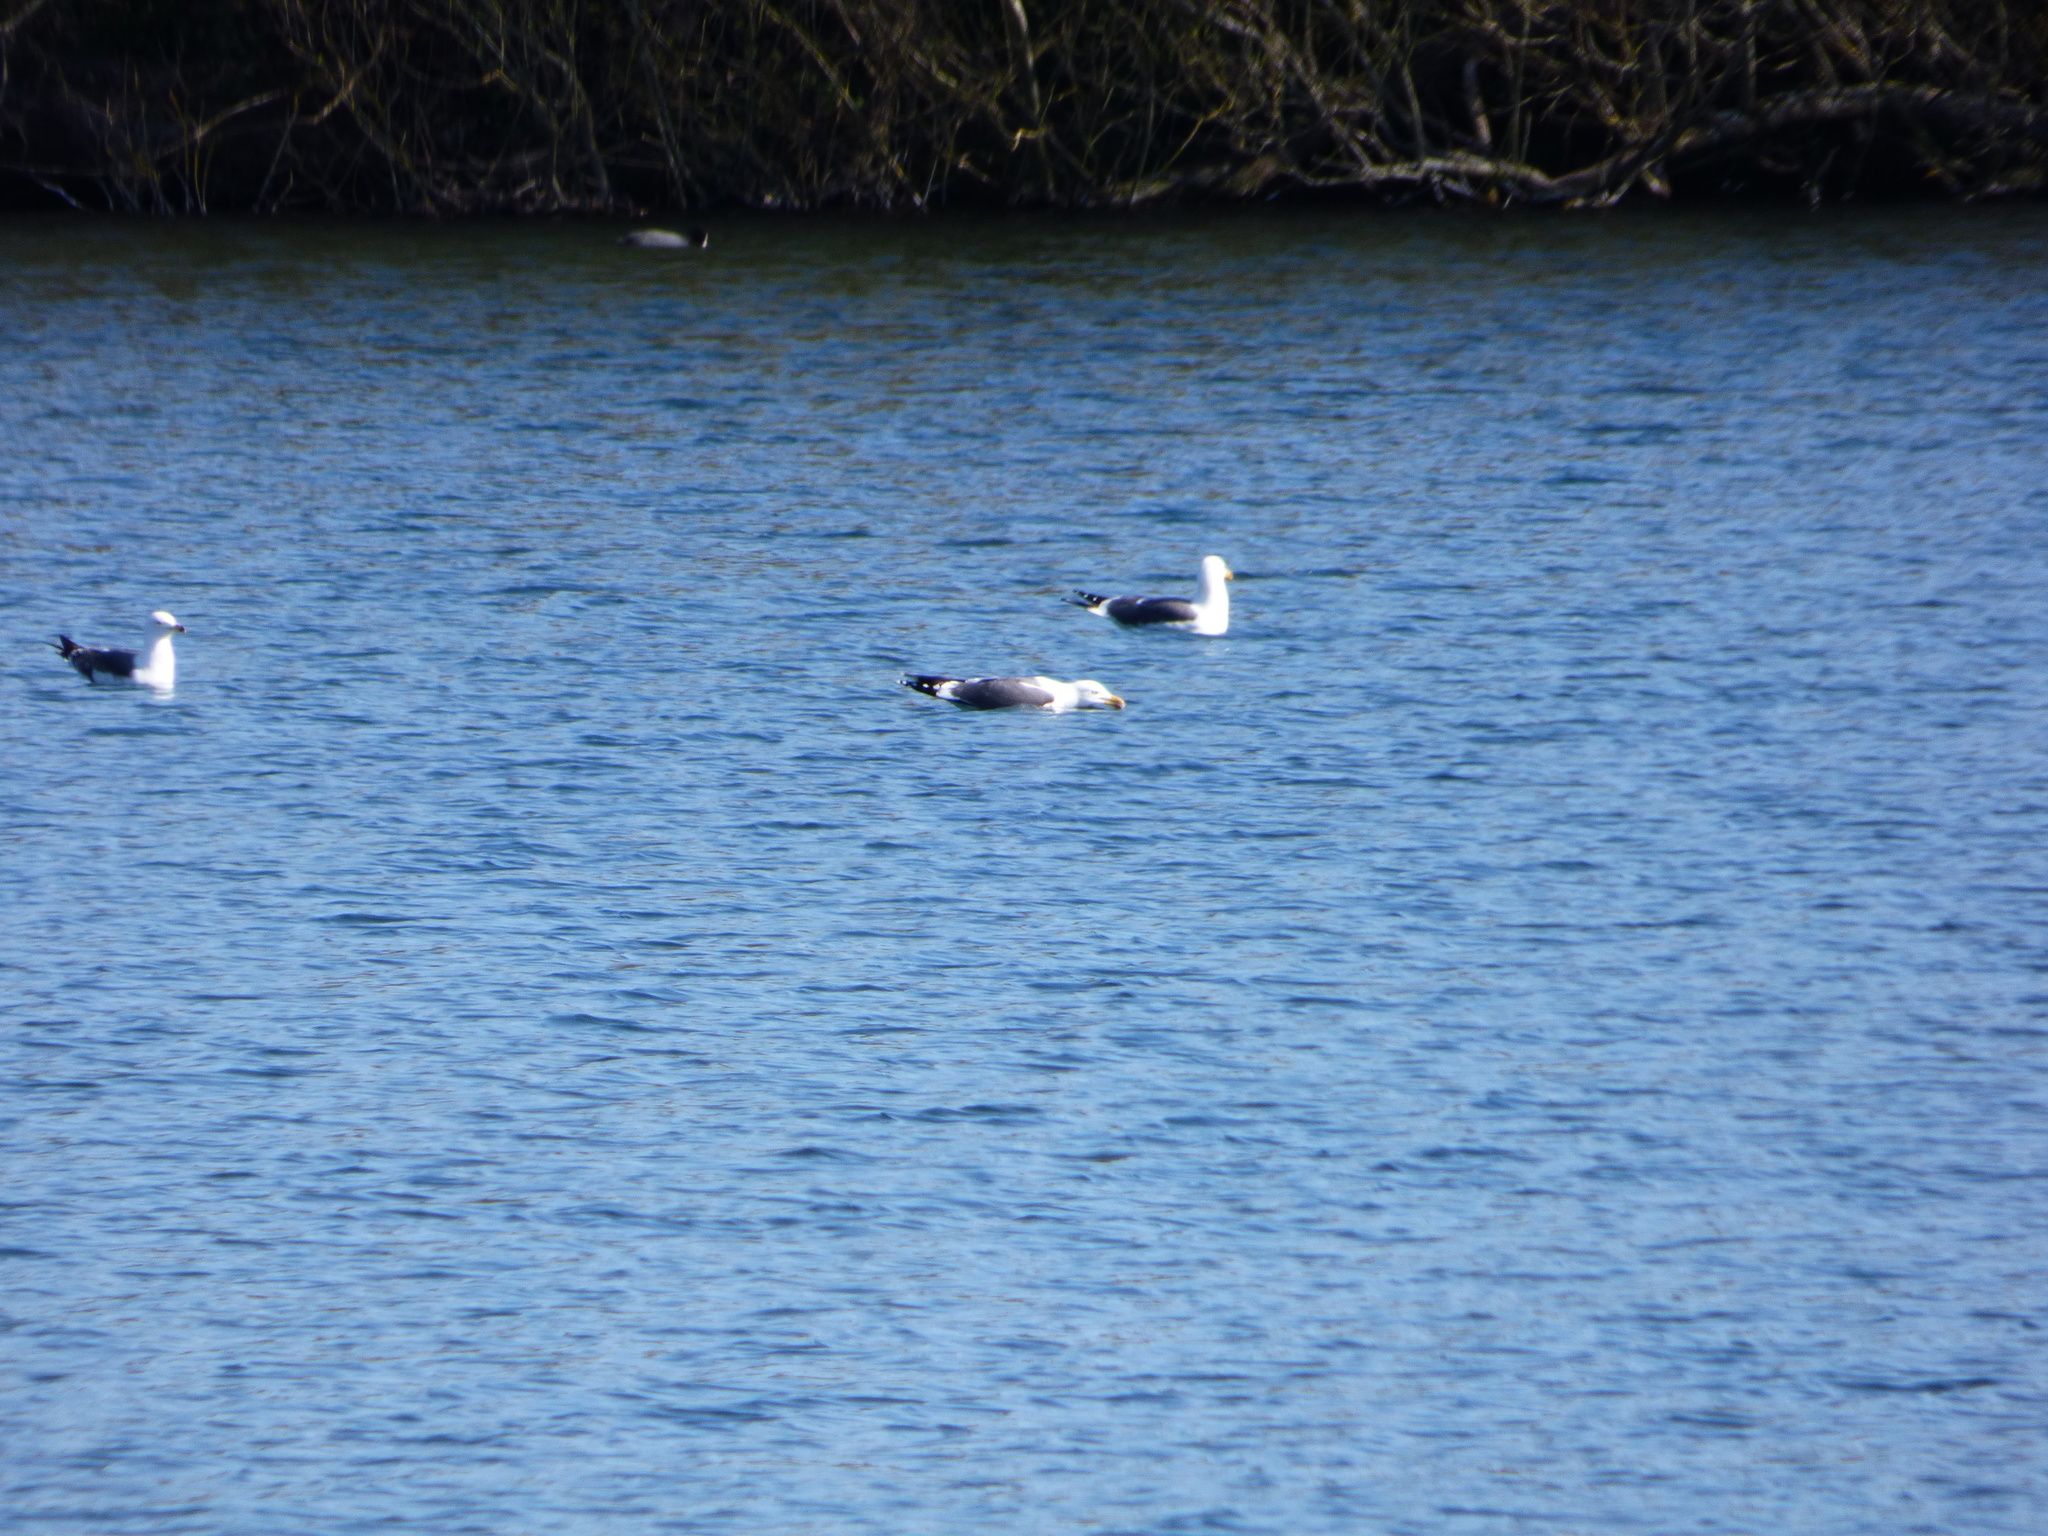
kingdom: Animalia
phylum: Chordata
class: Aves
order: Charadriiformes
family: Laridae
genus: Larus
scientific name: Larus fuscus
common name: Lesser black-backed gull
